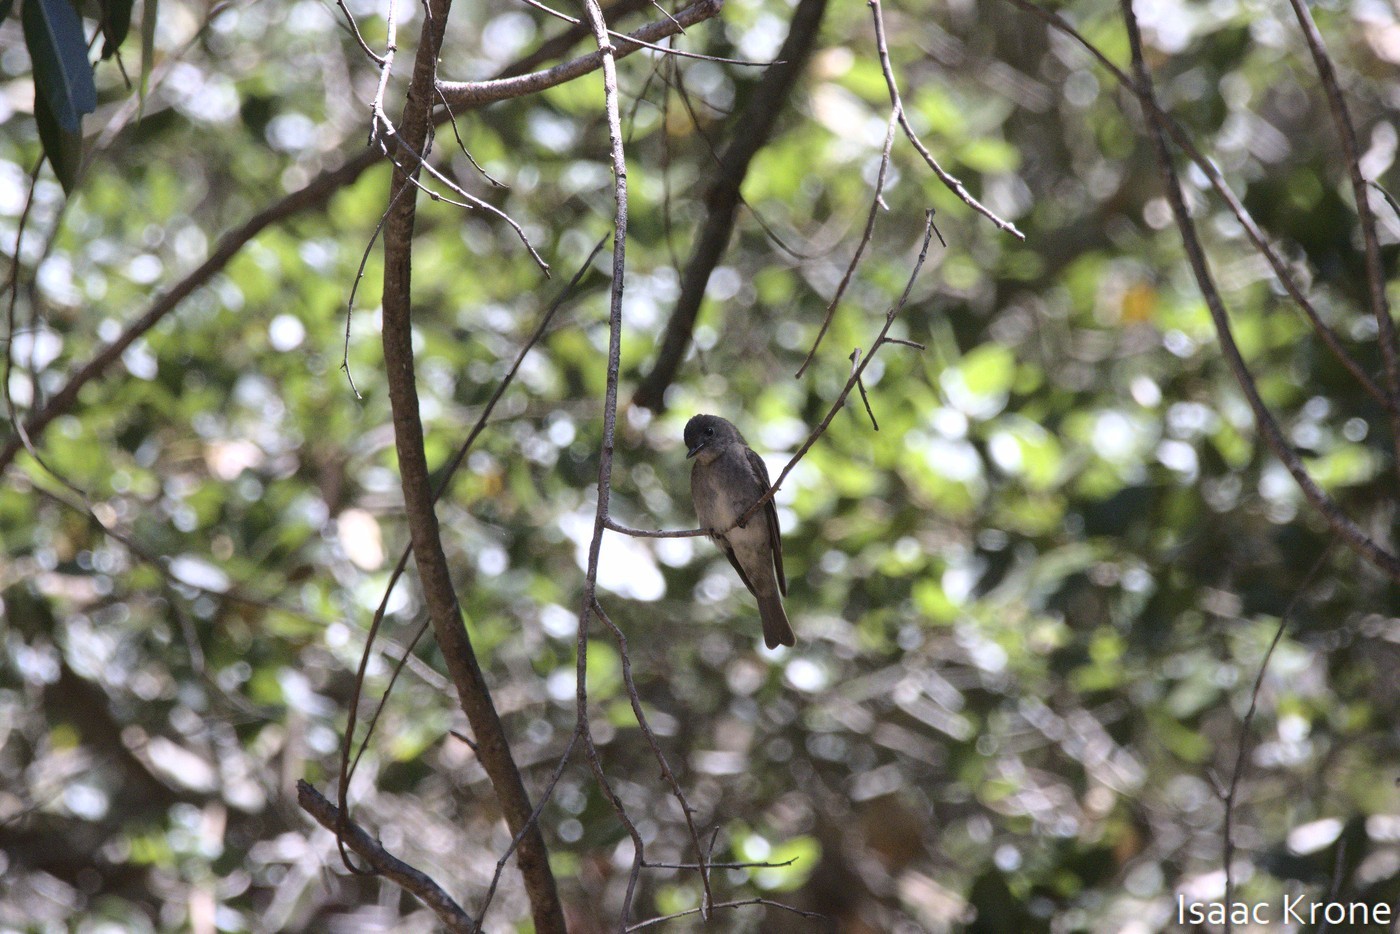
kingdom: Animalia
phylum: Chordata
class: Aves
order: Passeriformes
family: Tyrannidae
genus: Contopus
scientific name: Contopus sordidulus
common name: Western wood-pewee
